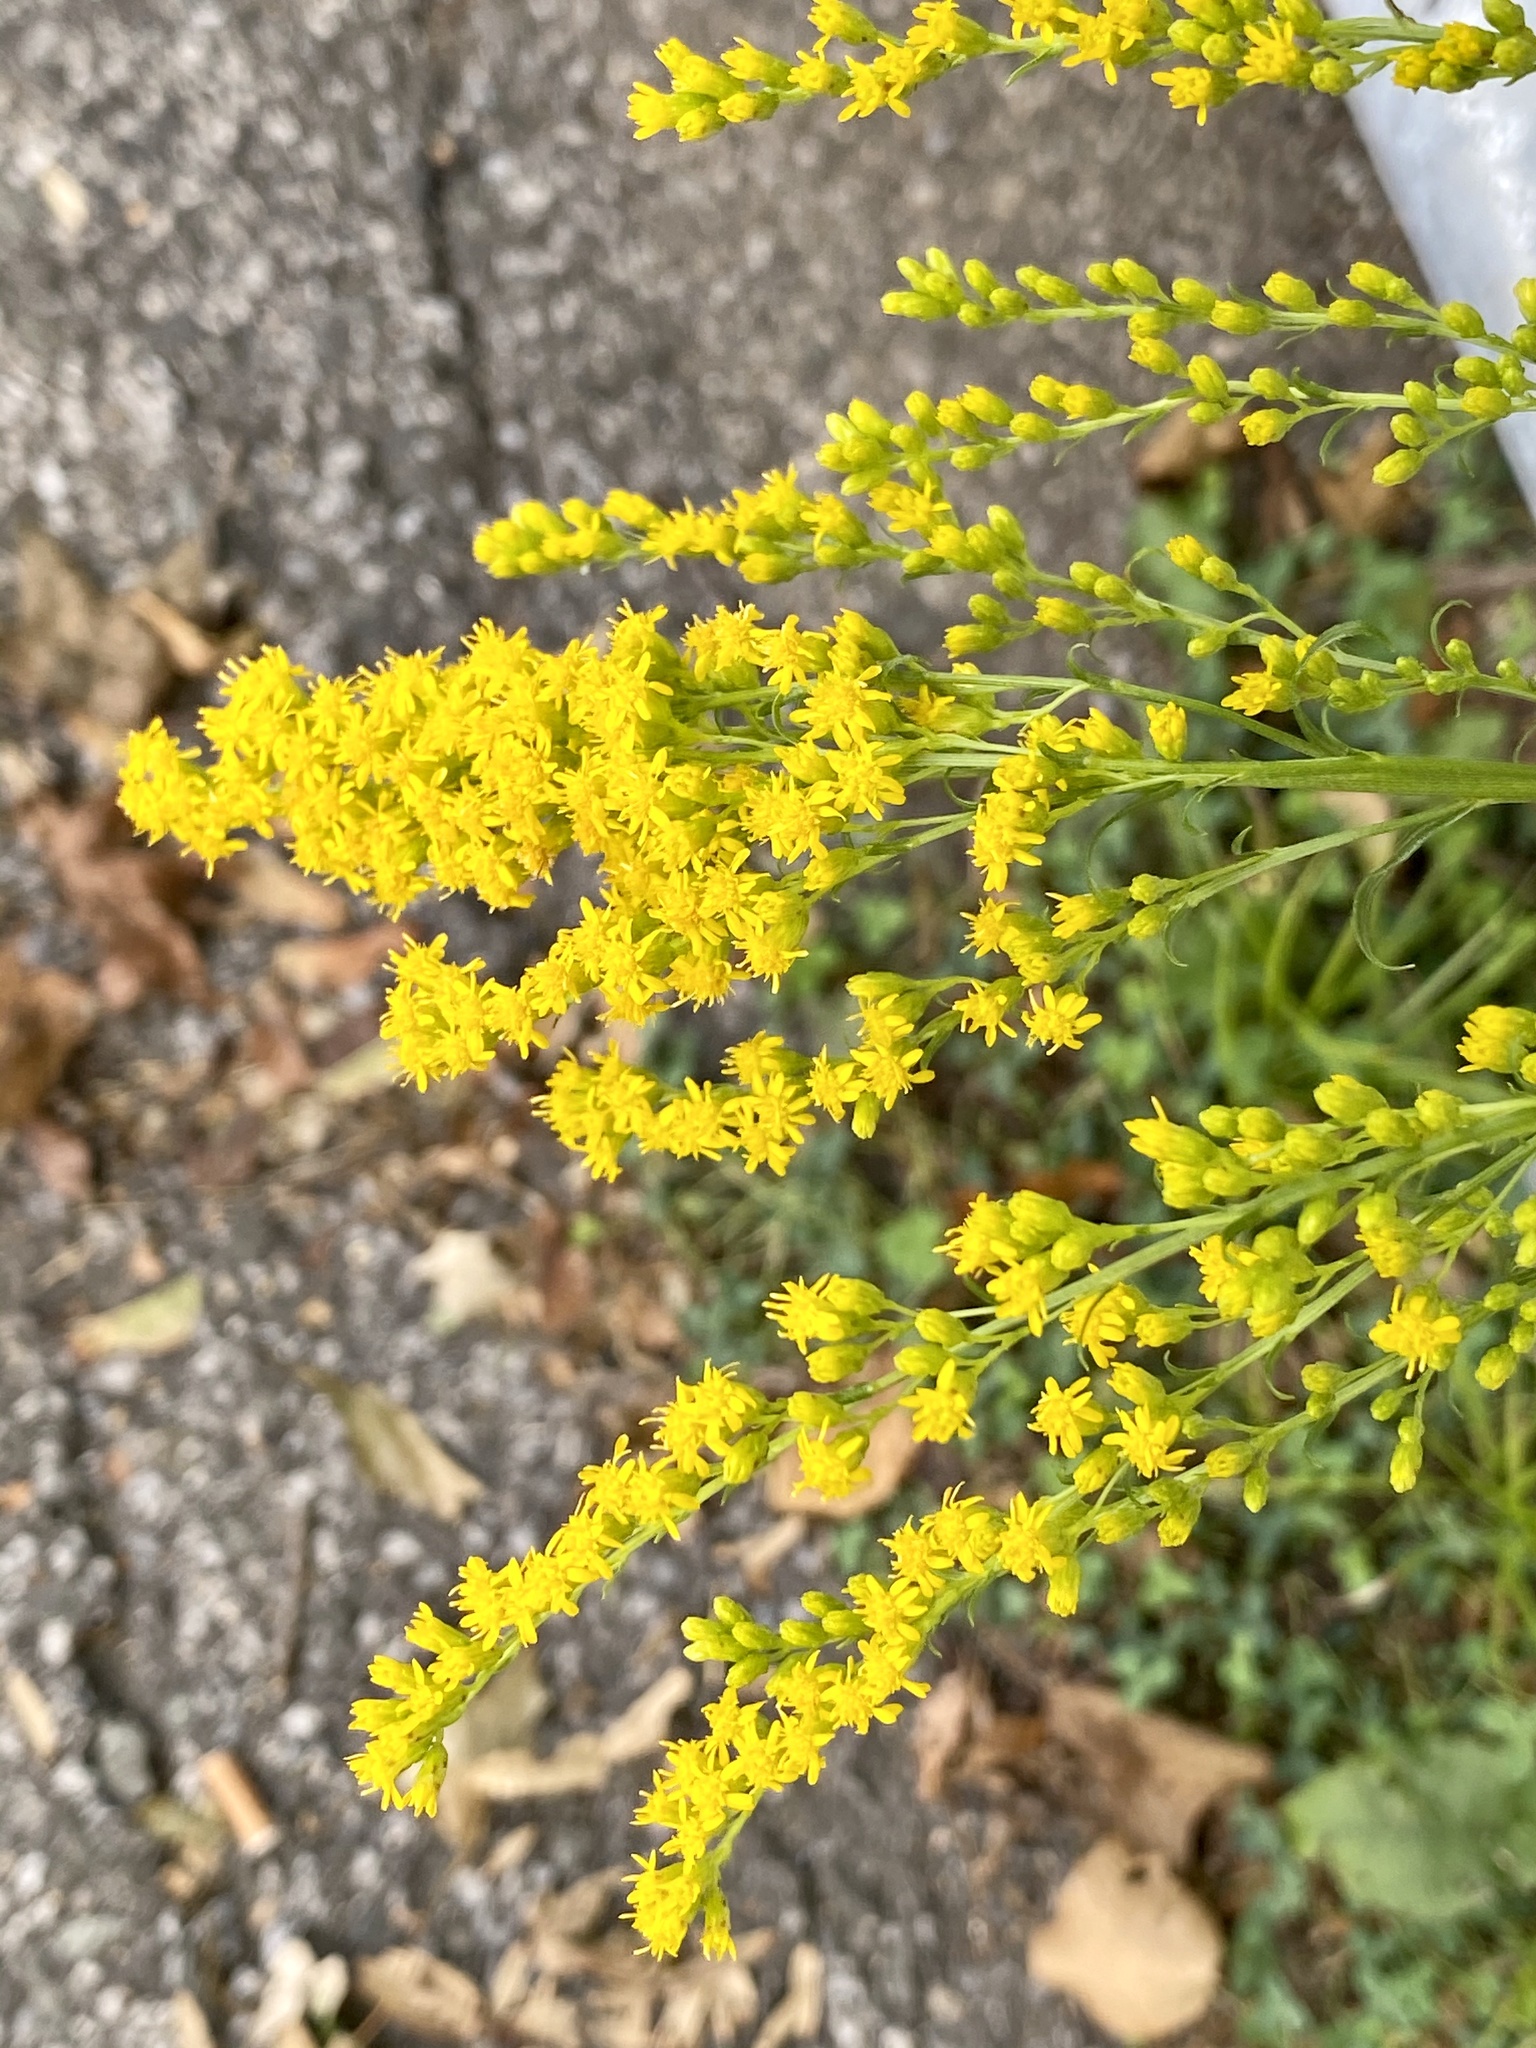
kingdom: Plantae
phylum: Tracheophyta
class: Magnoliopsida
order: Asterales
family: Asteraceae
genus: Solidago
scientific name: Solidago juncea
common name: Early goldenrod
